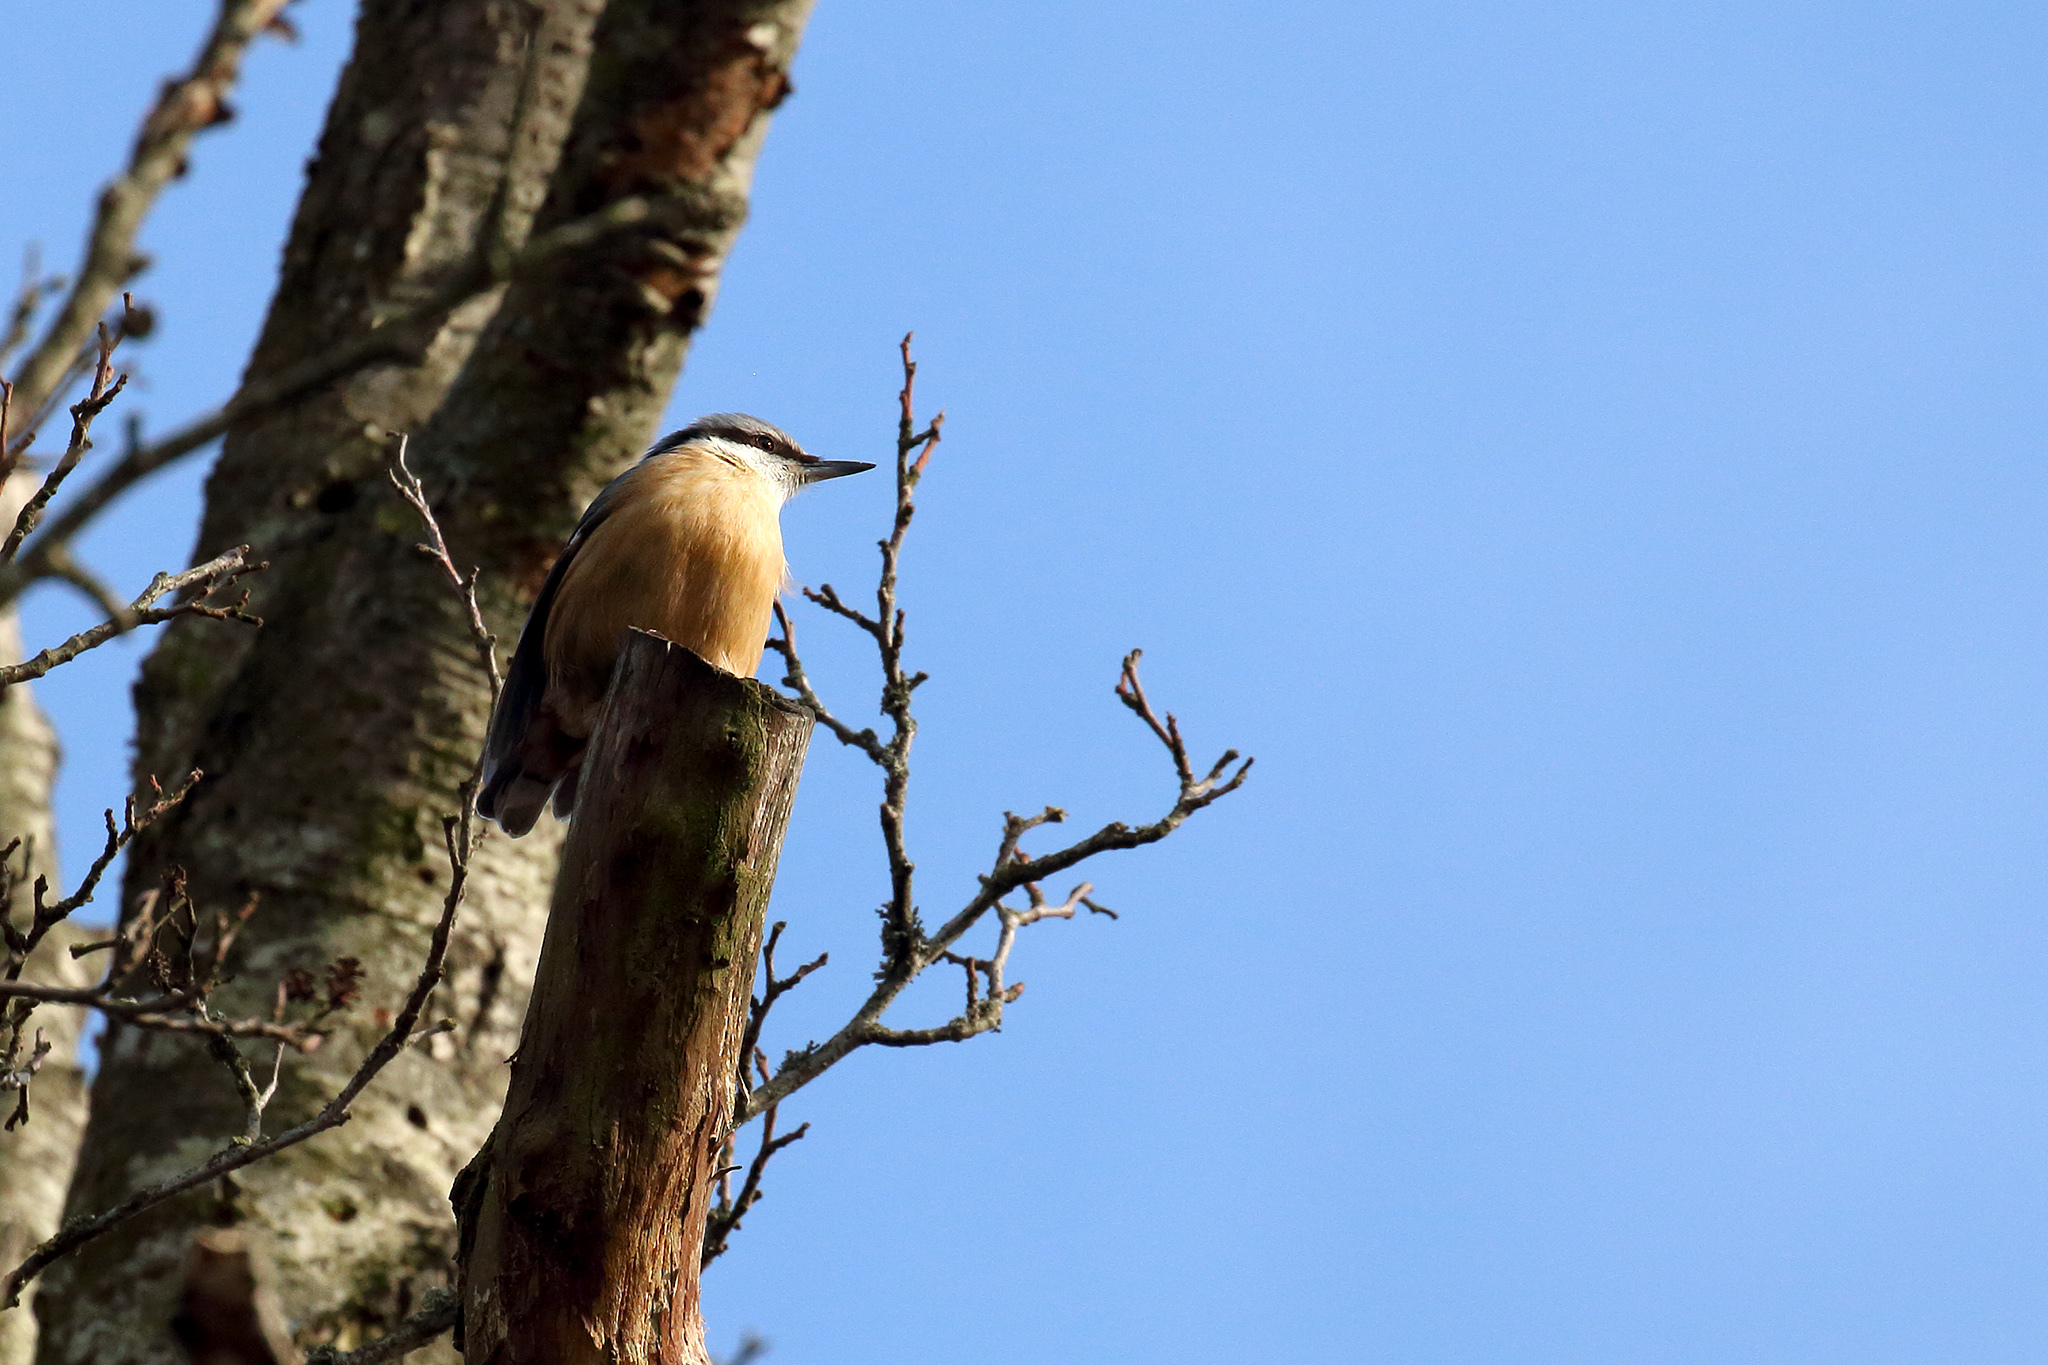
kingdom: Animalia
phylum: Chordata
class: Aves
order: Passeriformes
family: Sittidae
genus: Sitta
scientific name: Sitta europaea
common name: Eurasian nuthatch
